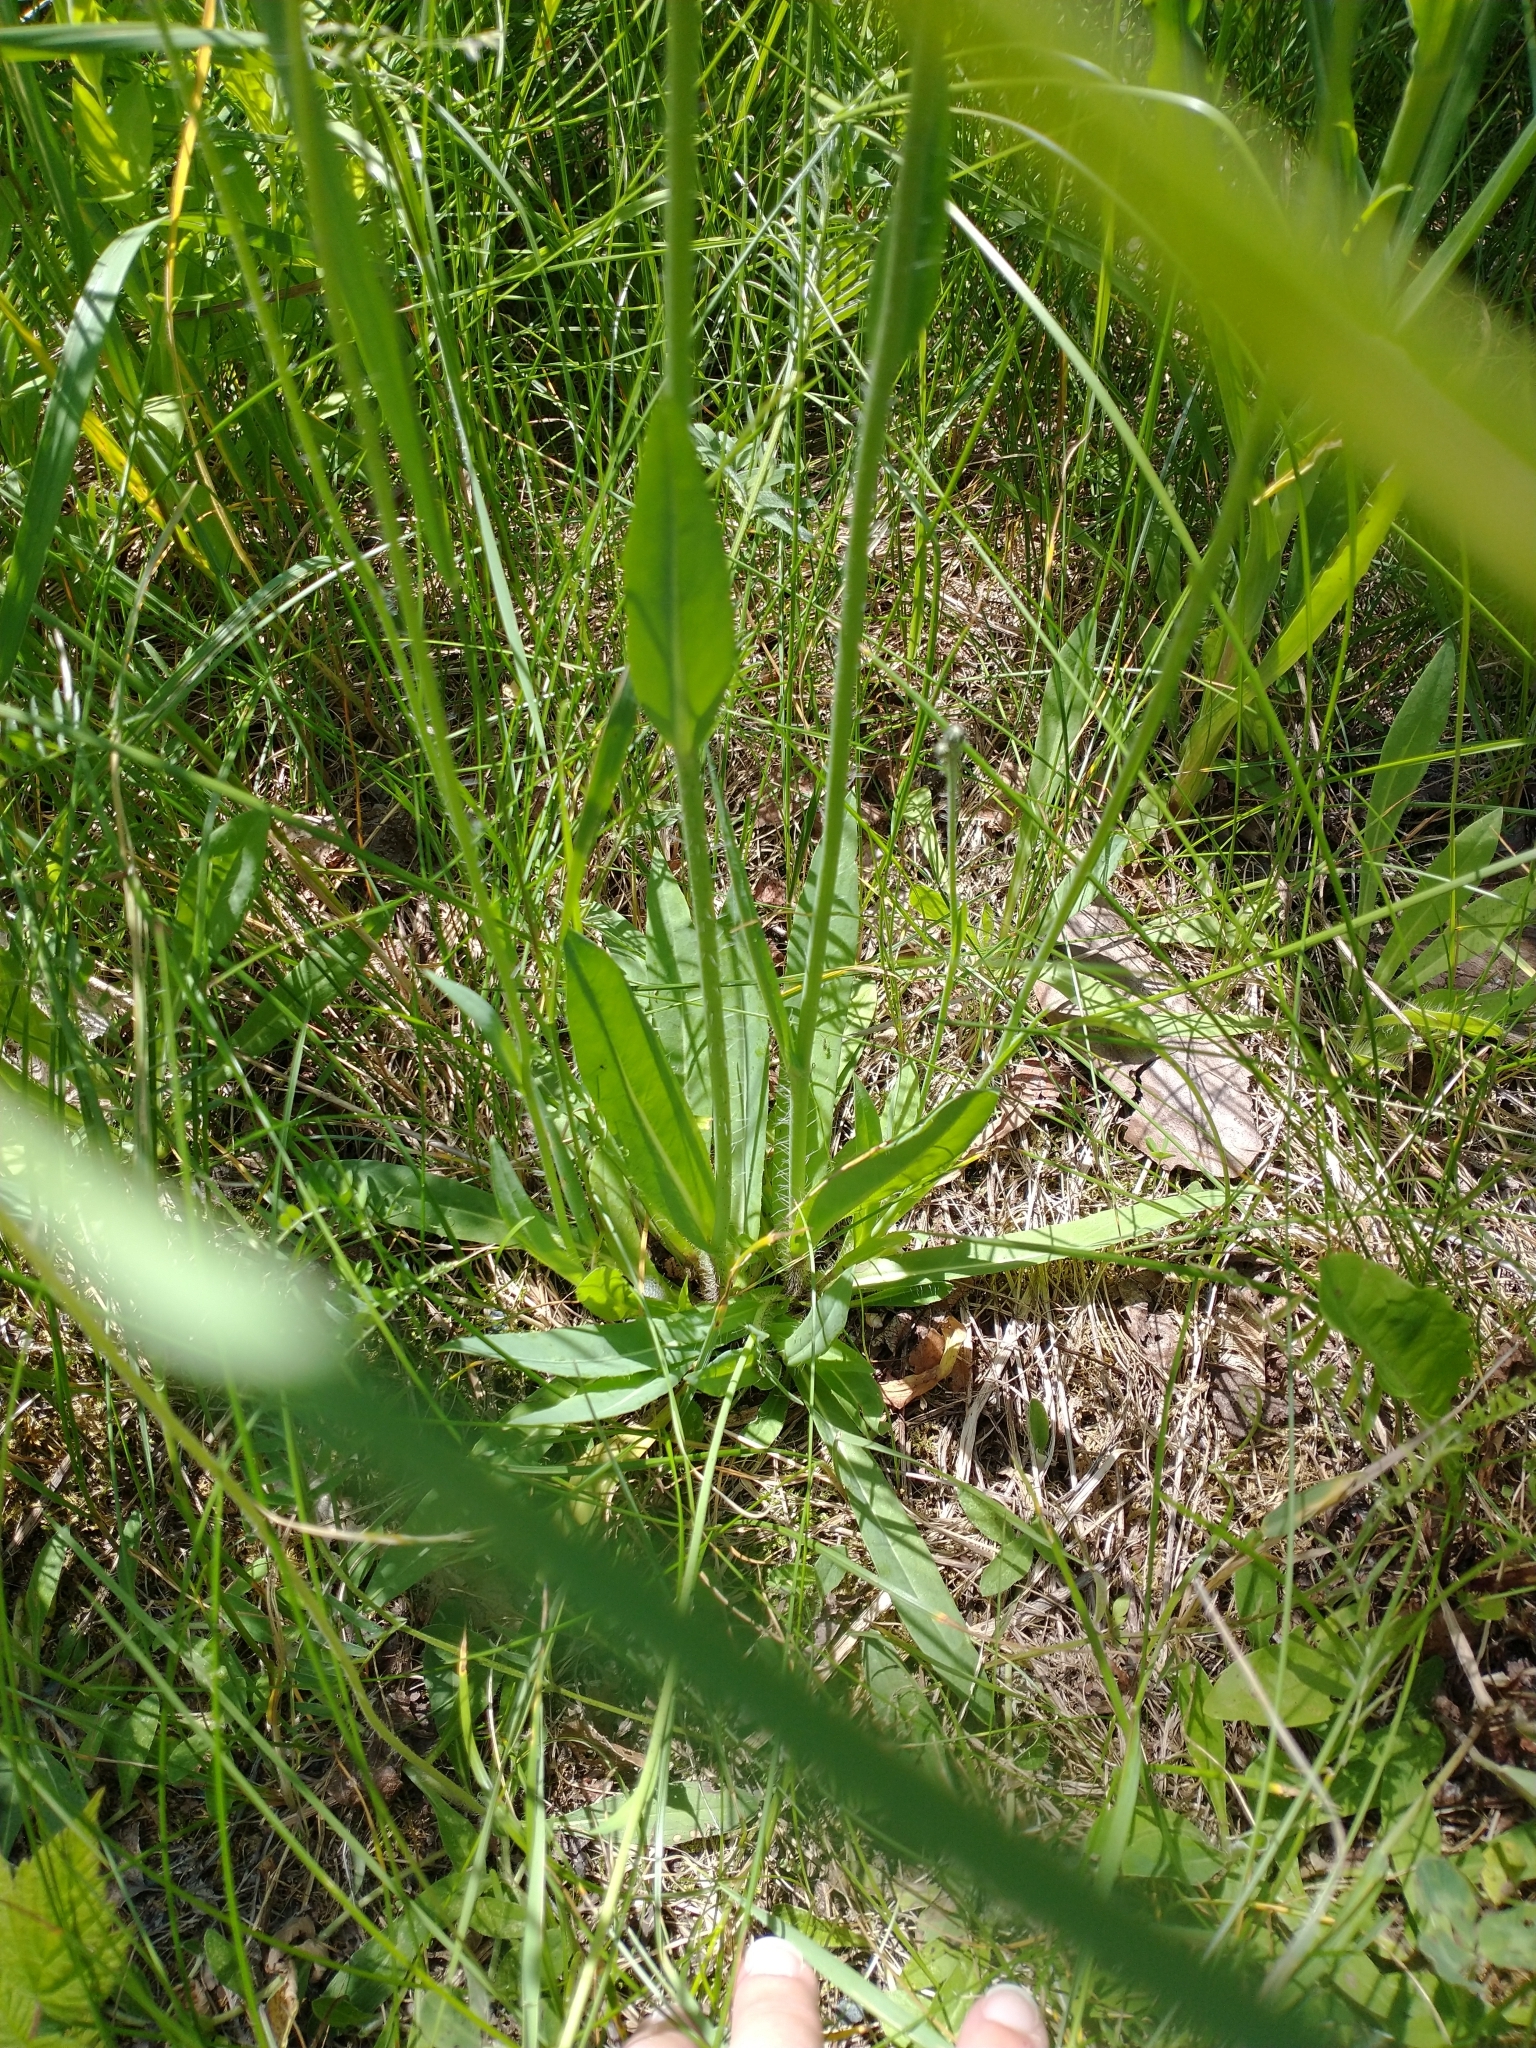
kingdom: Plantae
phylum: Tracheophyta
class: Magnoliopsida
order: Asterales
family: Asteraceae
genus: Pilosella
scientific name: Pilosella caespitosa
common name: Yellow fox-and-cubs
